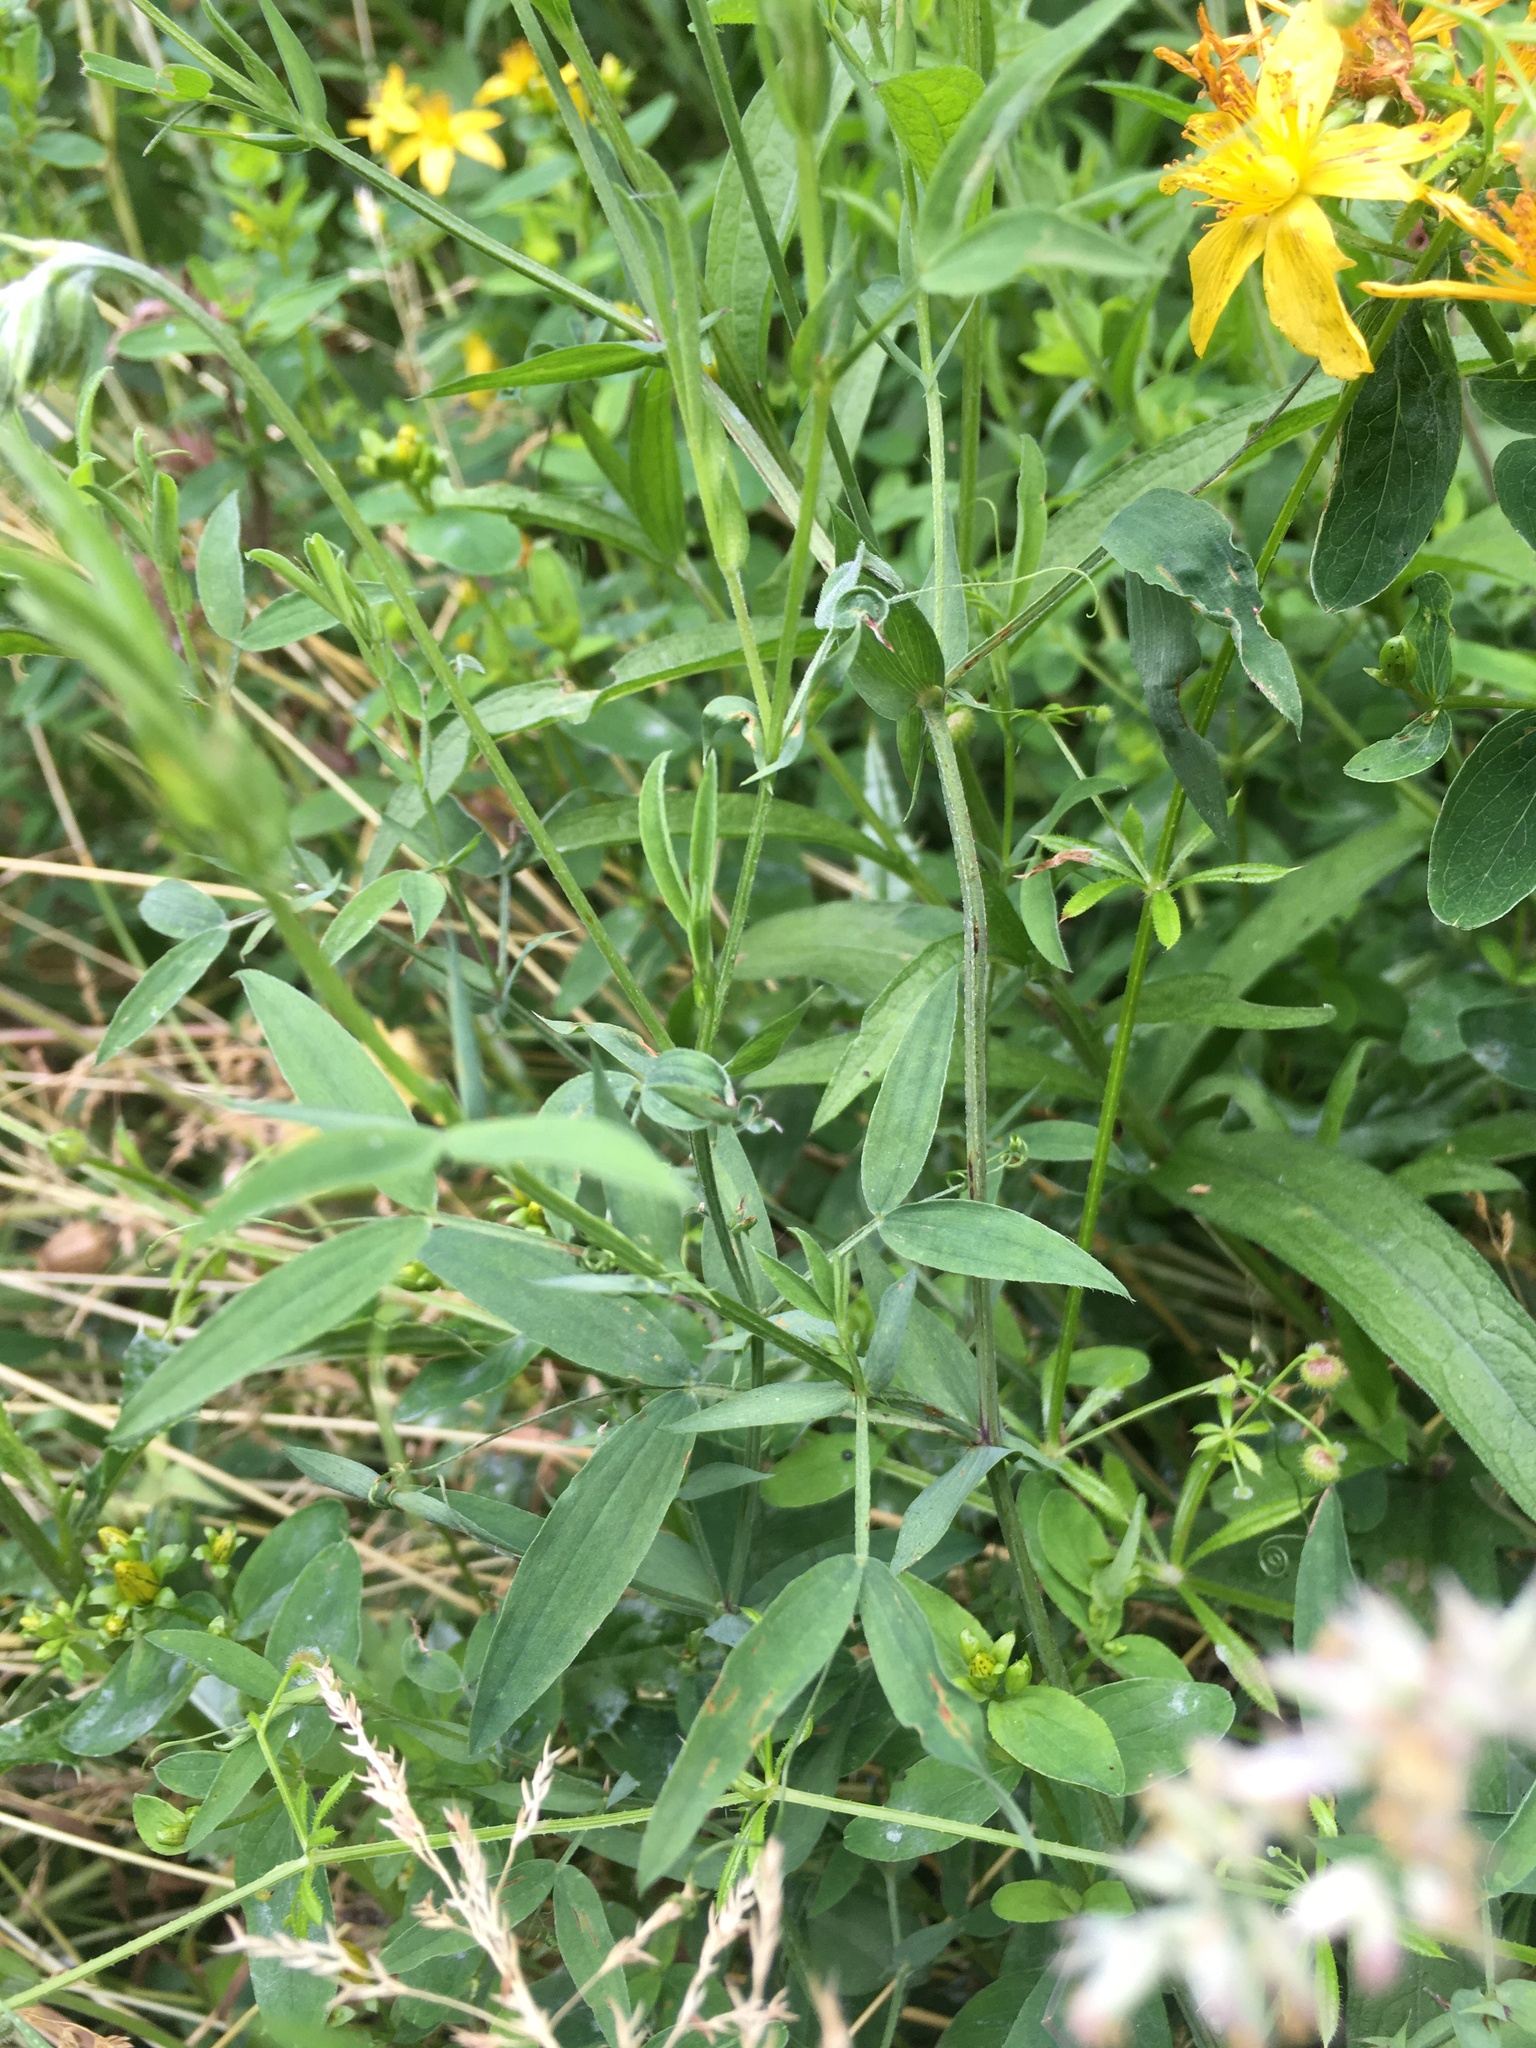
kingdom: Plantae
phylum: Tracheophyta
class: Magnoliopsida
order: Fabales
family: Fabaceae
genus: Lathyrus
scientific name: Lathyrus pratensis
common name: Meadow vetchling
